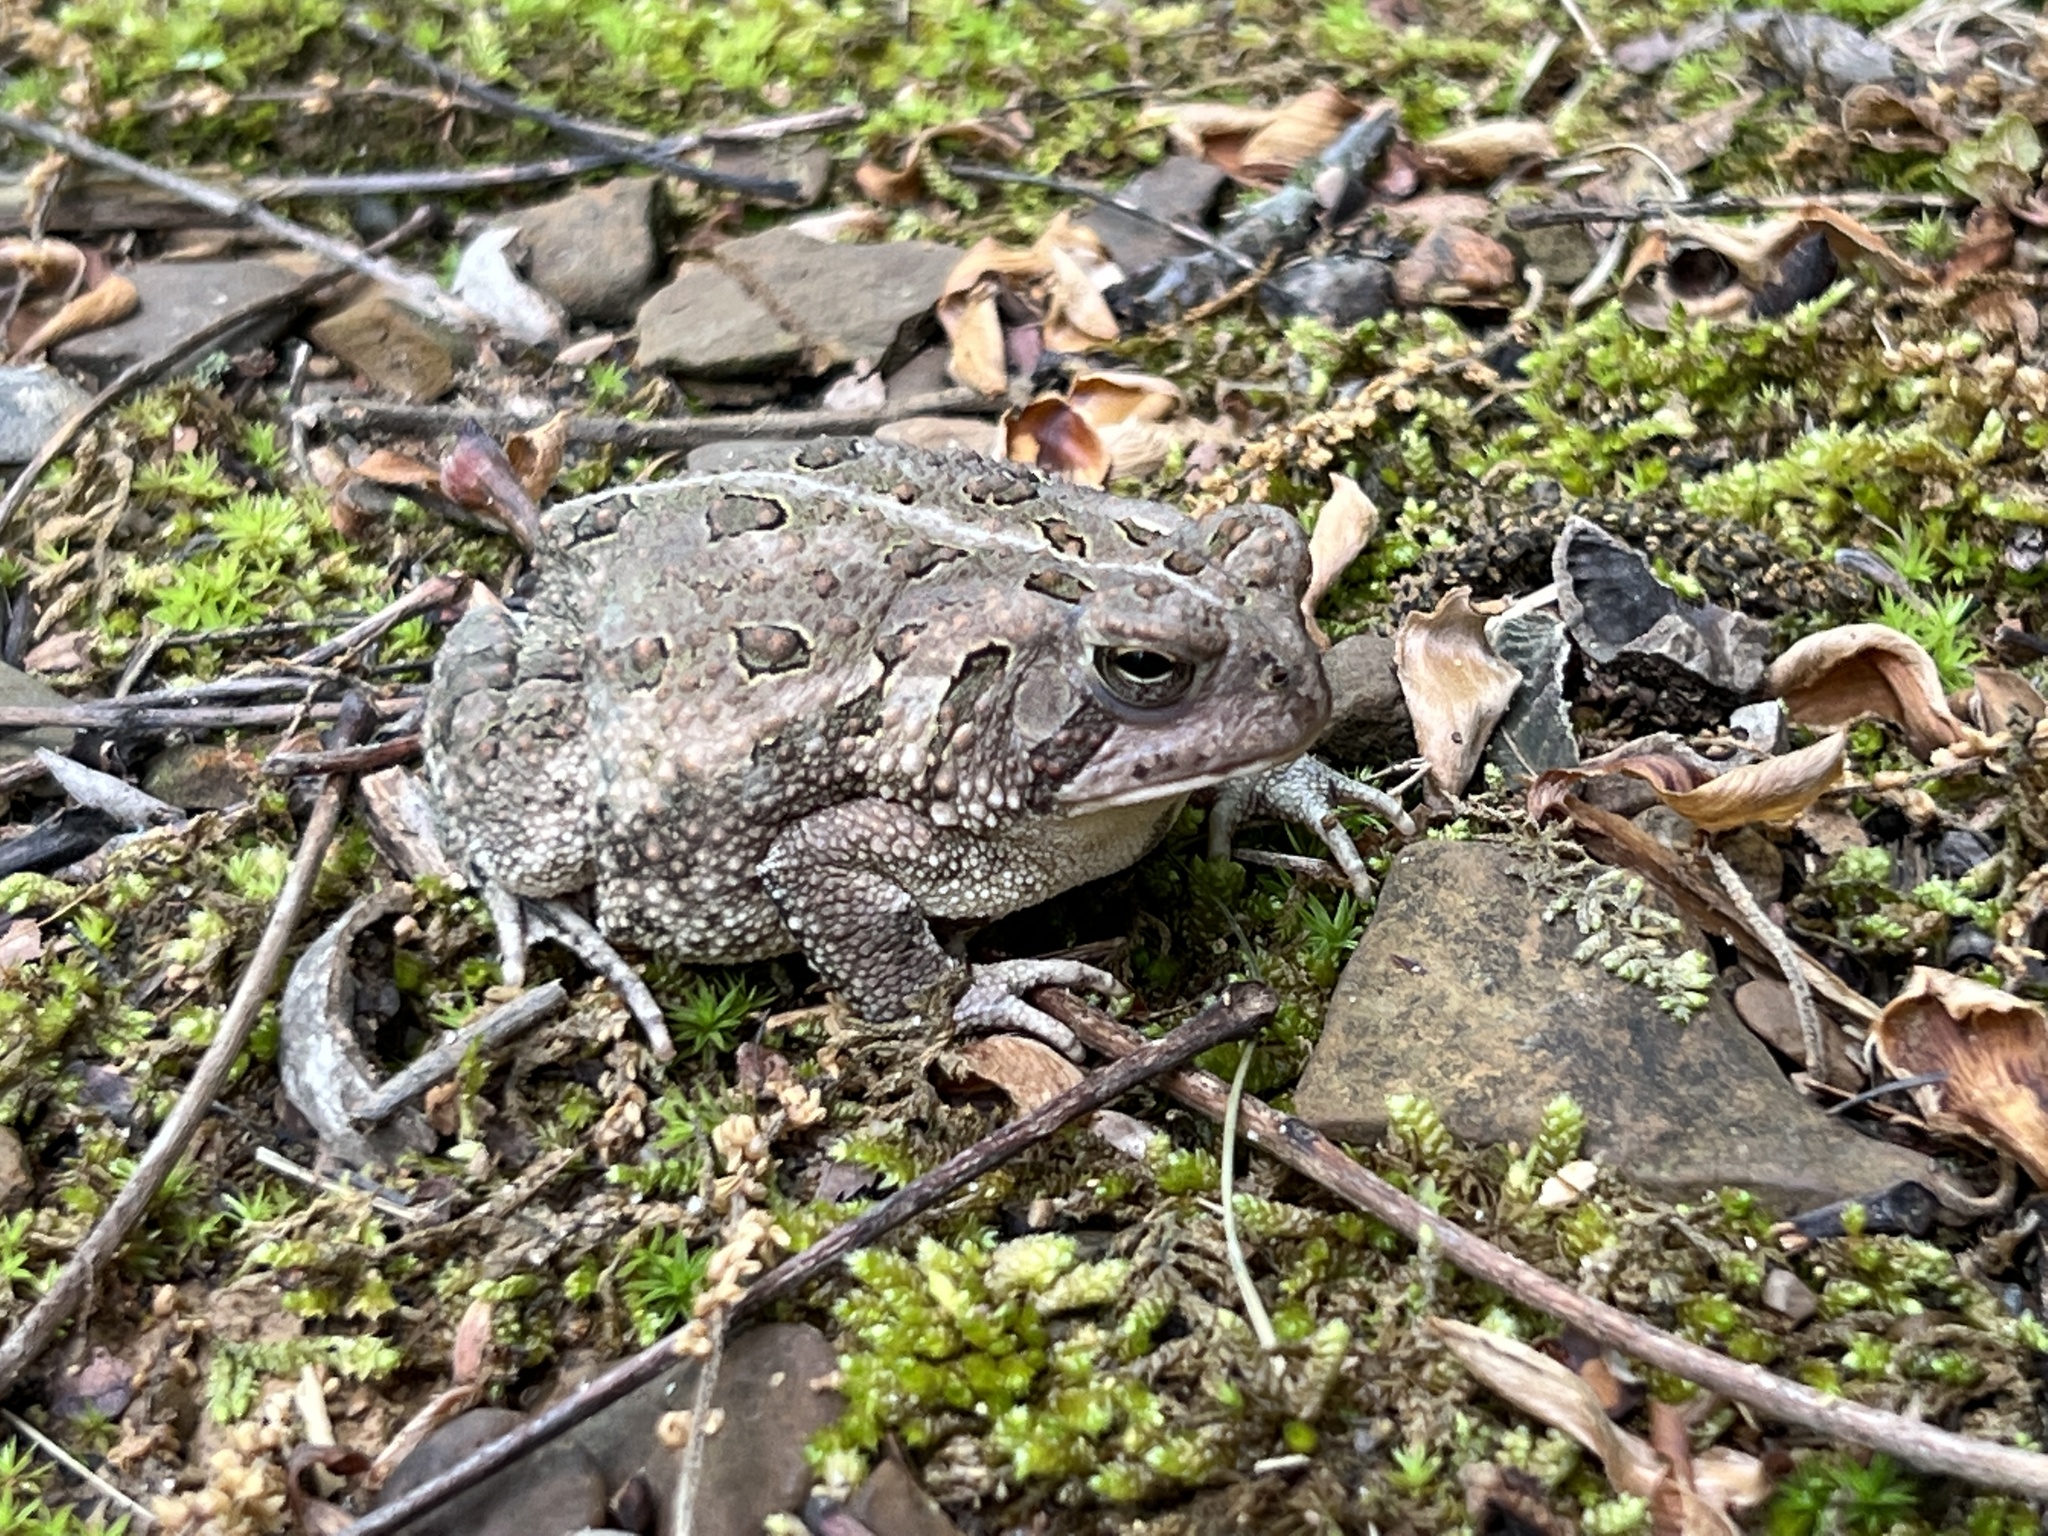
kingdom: Animalia
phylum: Chordata
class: Amphibia
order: Anura
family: Bufonidae
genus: Anaxyrus
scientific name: Anaxyrus fowleri
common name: Fowler's toad
